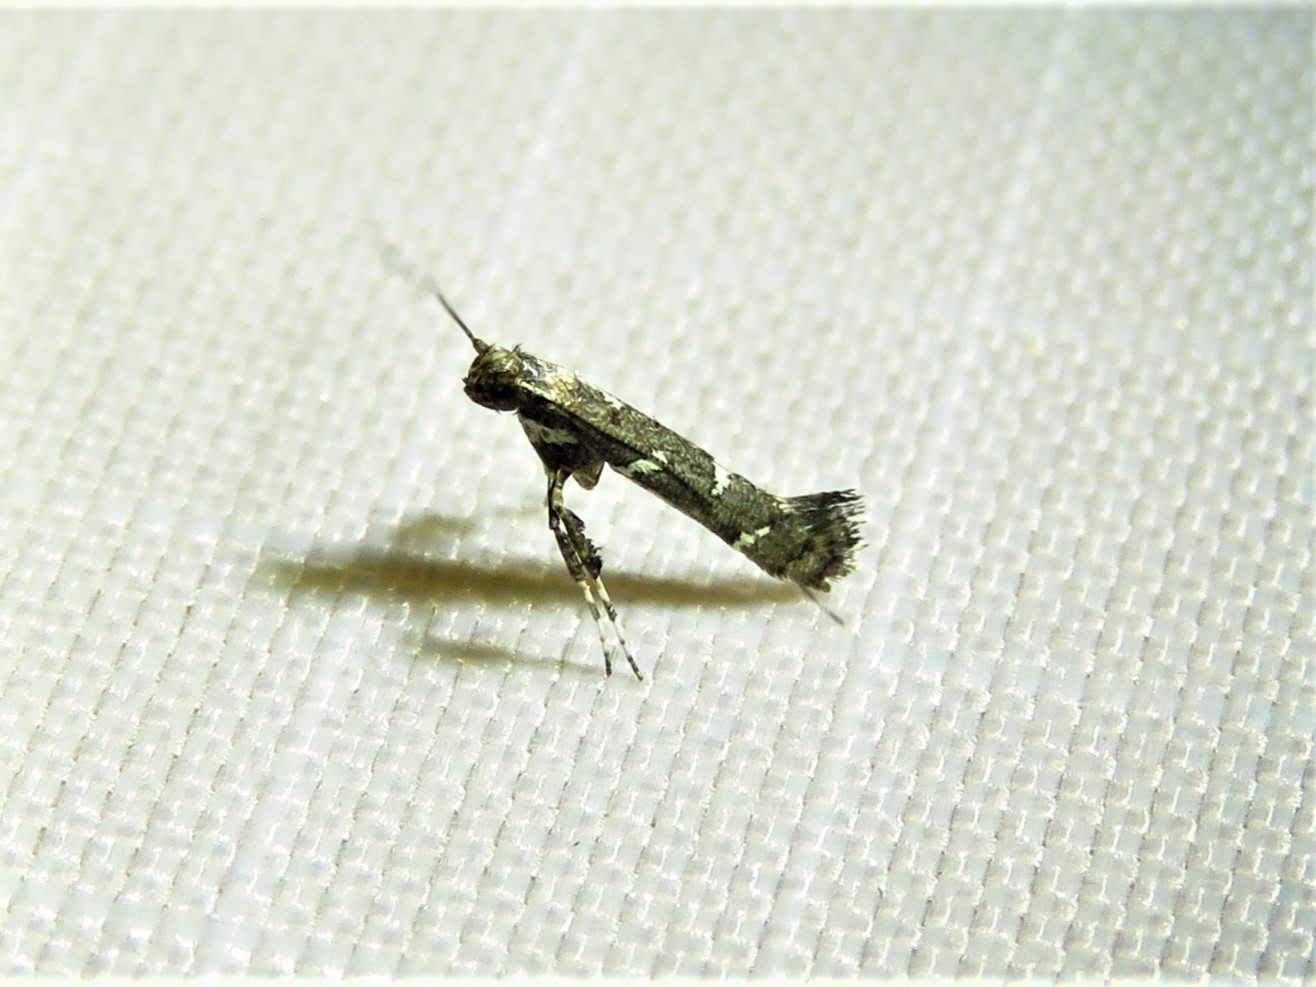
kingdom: Animalia
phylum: Arthropoda
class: Insecta
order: Lepidoptera
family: Gracillariidae
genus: Caloptilia
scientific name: Caloptilia triadicae
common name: Tallow leaf roller
